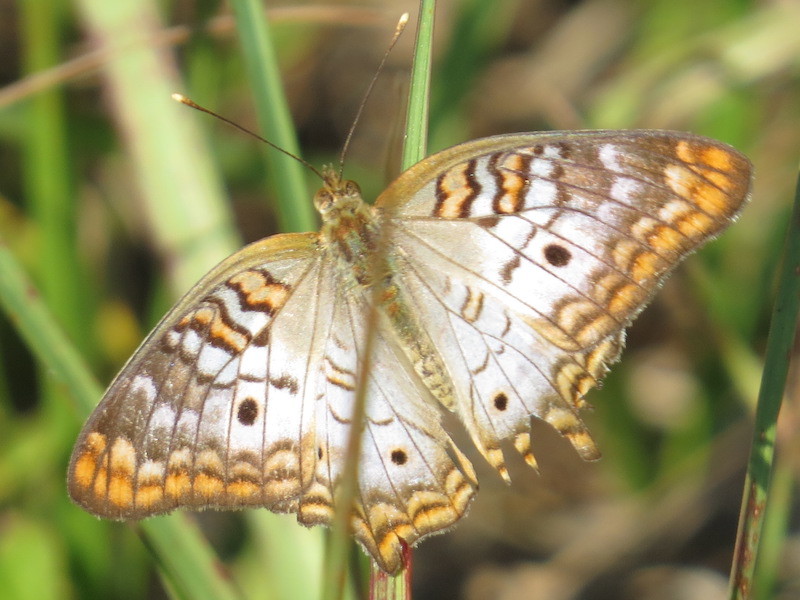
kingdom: Animalia
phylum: Arthropoda
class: Insecta
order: Lepidoptera
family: Nymphalidae
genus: Anartia
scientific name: Anartia jatrophae
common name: White peacock
